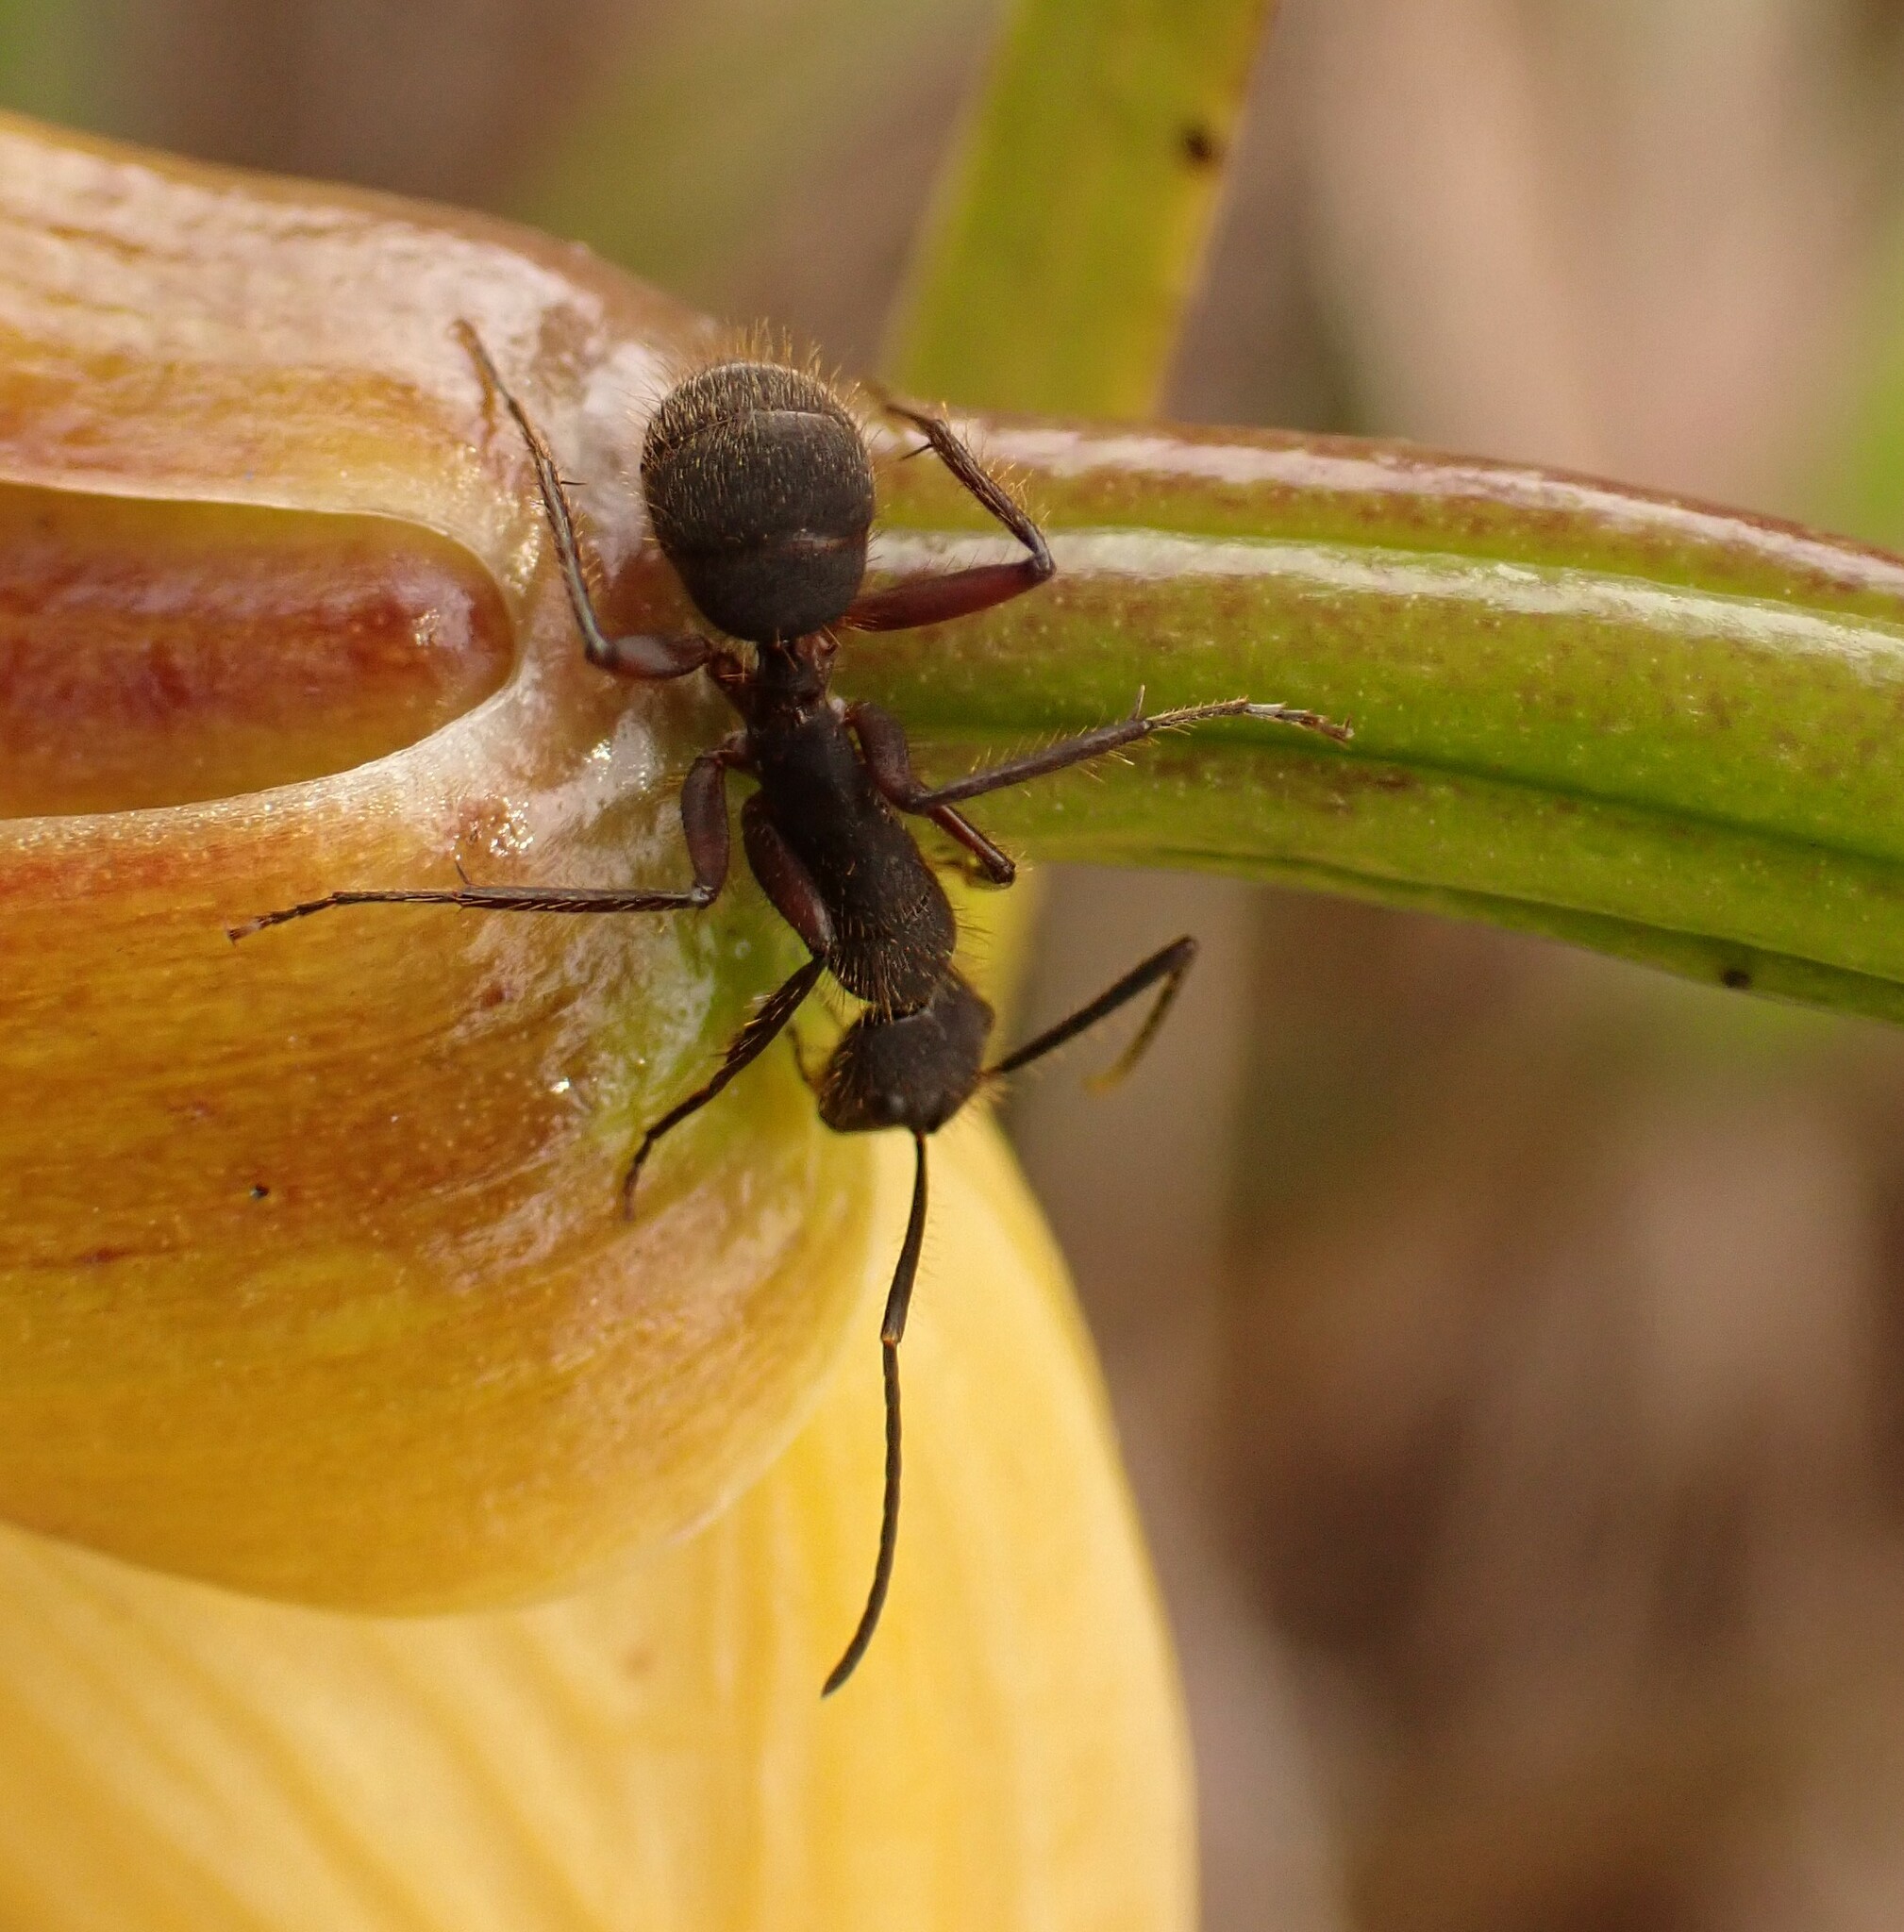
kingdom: Animalia
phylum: Arthropoda
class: Insecta
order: Hymenoptera
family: Formicidae
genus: Camponotus
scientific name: Camponotus rufipes
